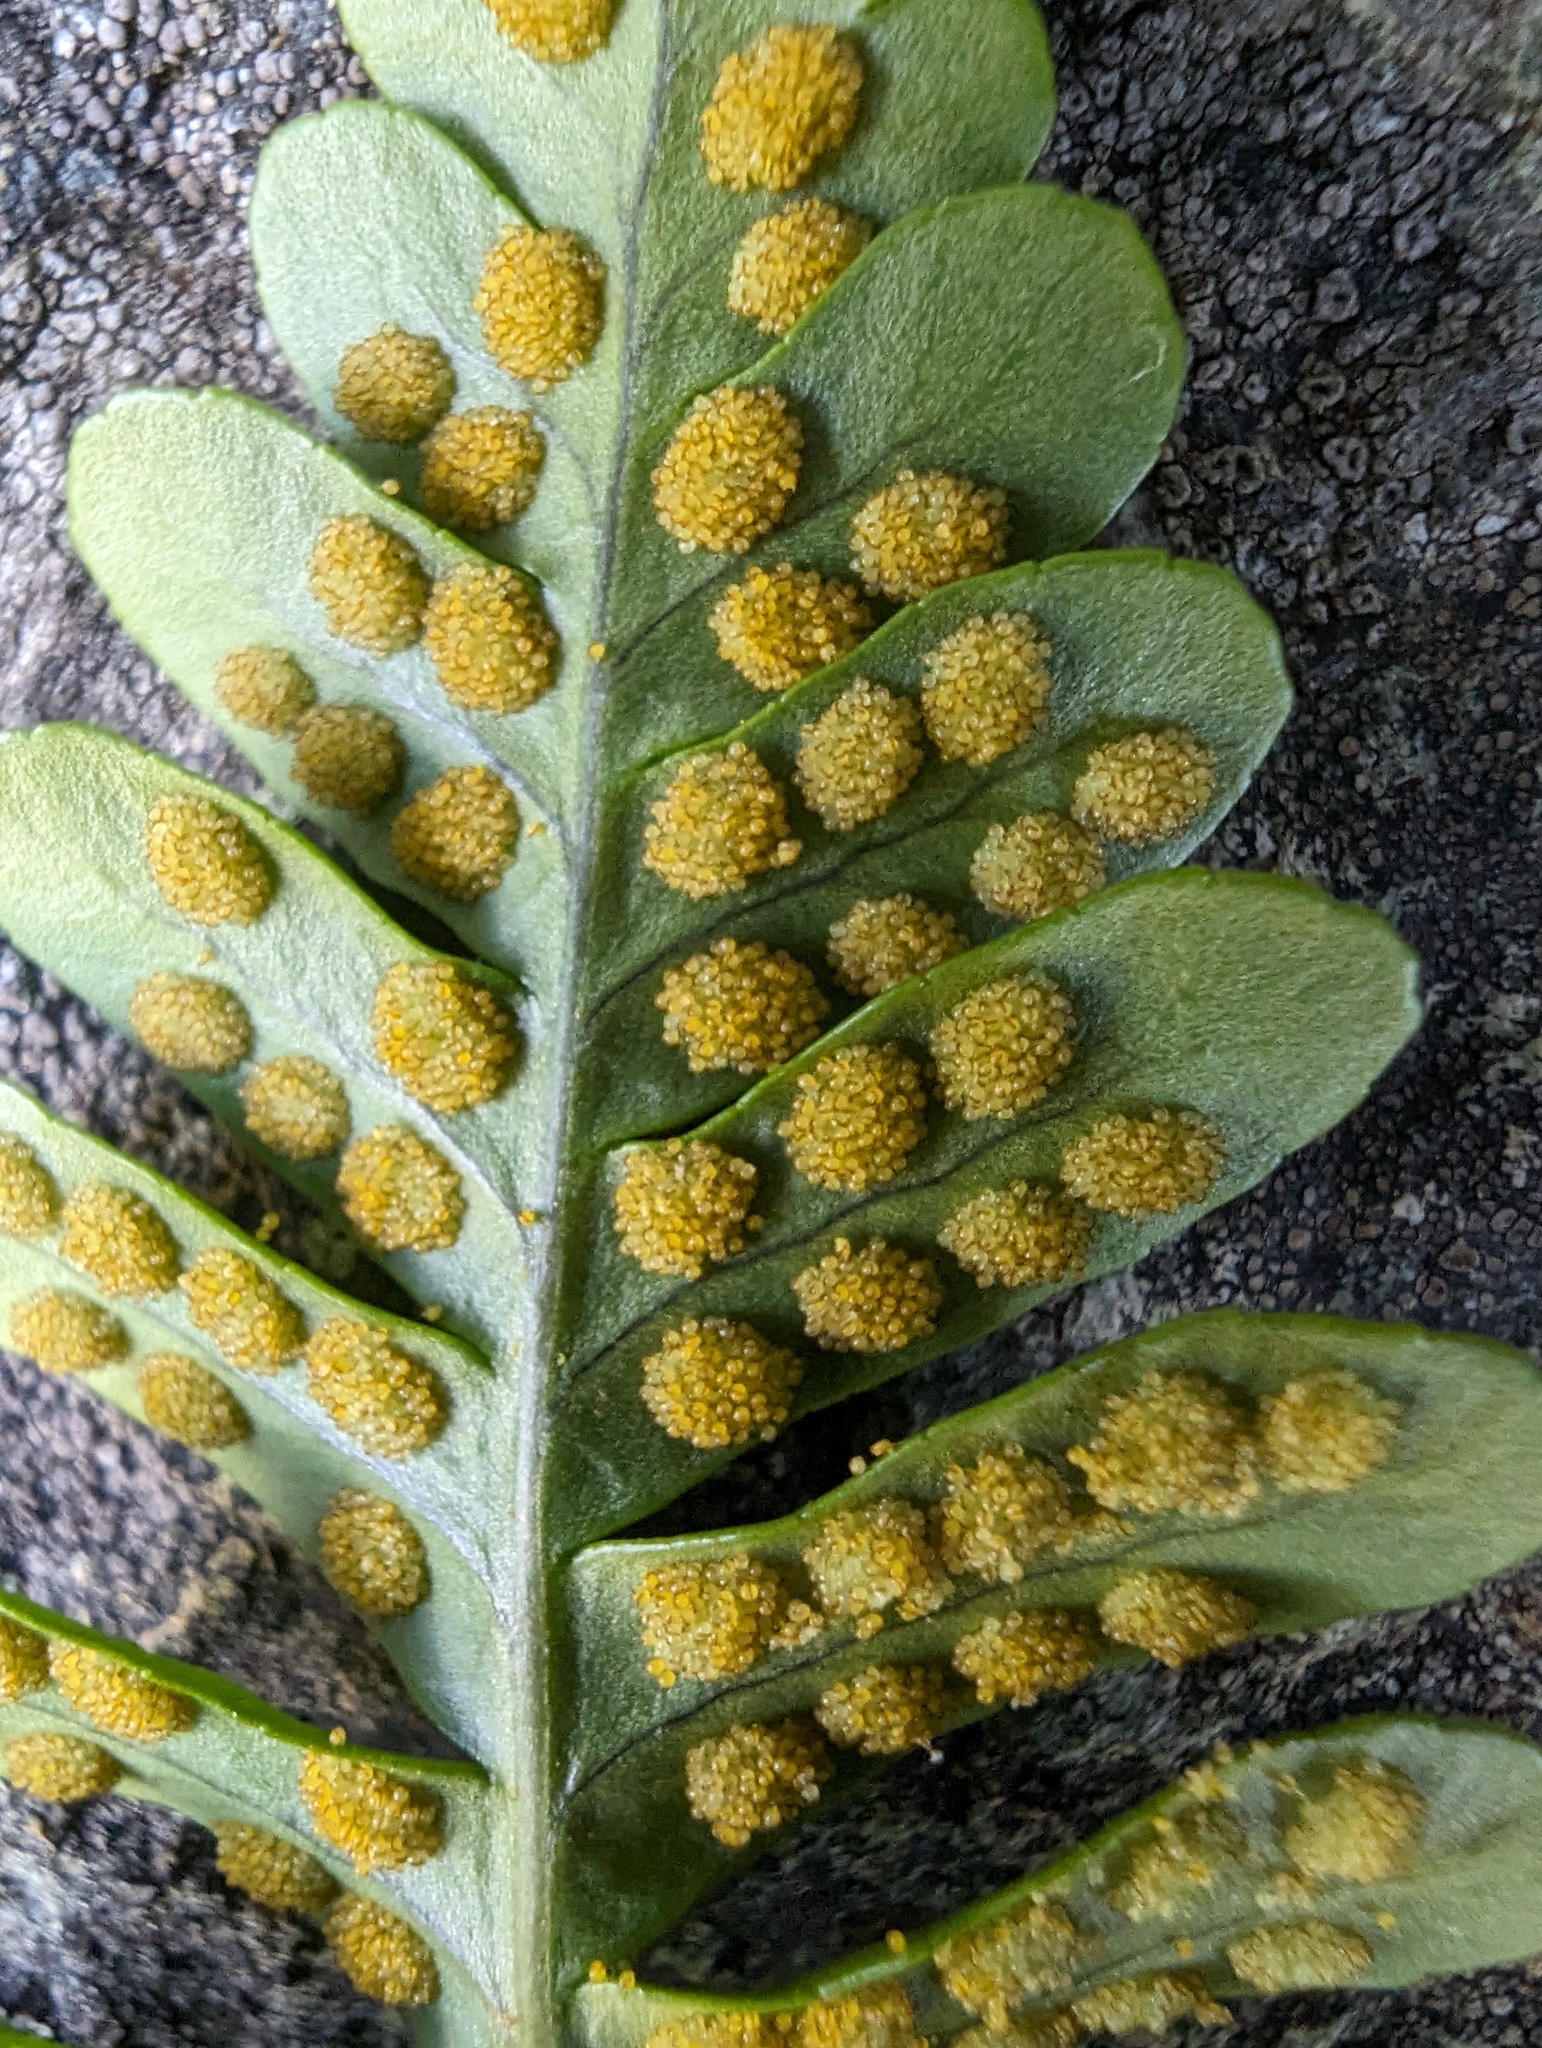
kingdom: Plantae
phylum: Tracheophyta
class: Polypodiopsida
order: Polypodiales
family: Polypodiaceae
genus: Polypodium
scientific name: Polypodium amorphum
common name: Pacific polypody
